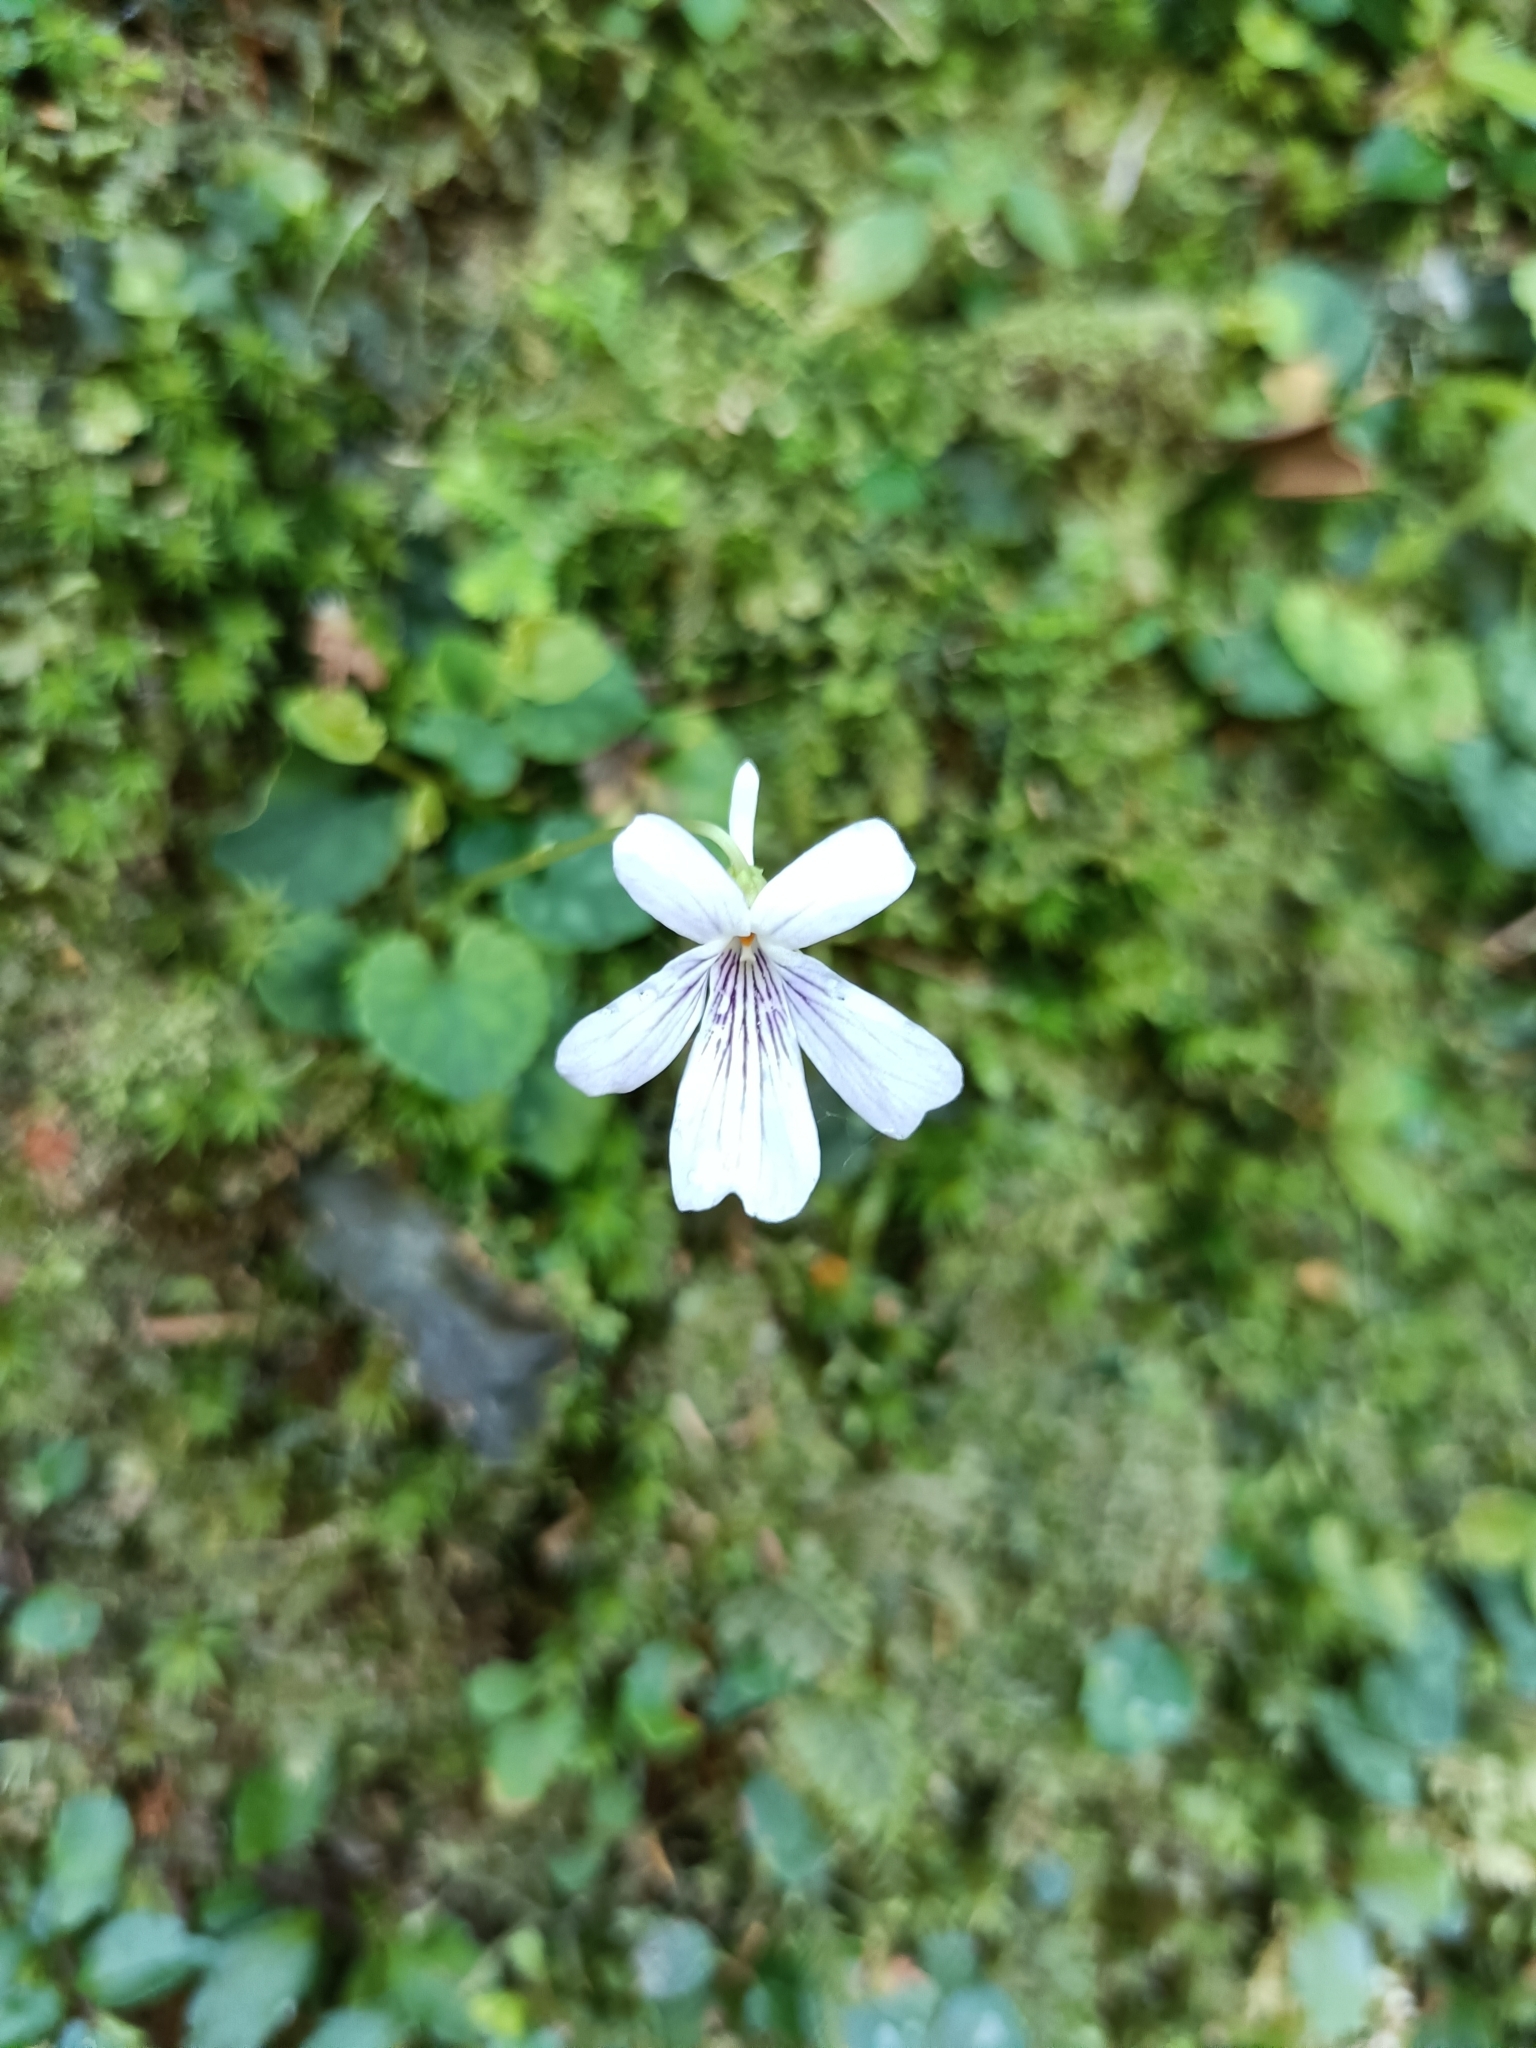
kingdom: Plantae
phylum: Tracheophyta
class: Magnoliopsida
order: Malpighiales
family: Violaceae
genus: Viola
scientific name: Viola formosana
